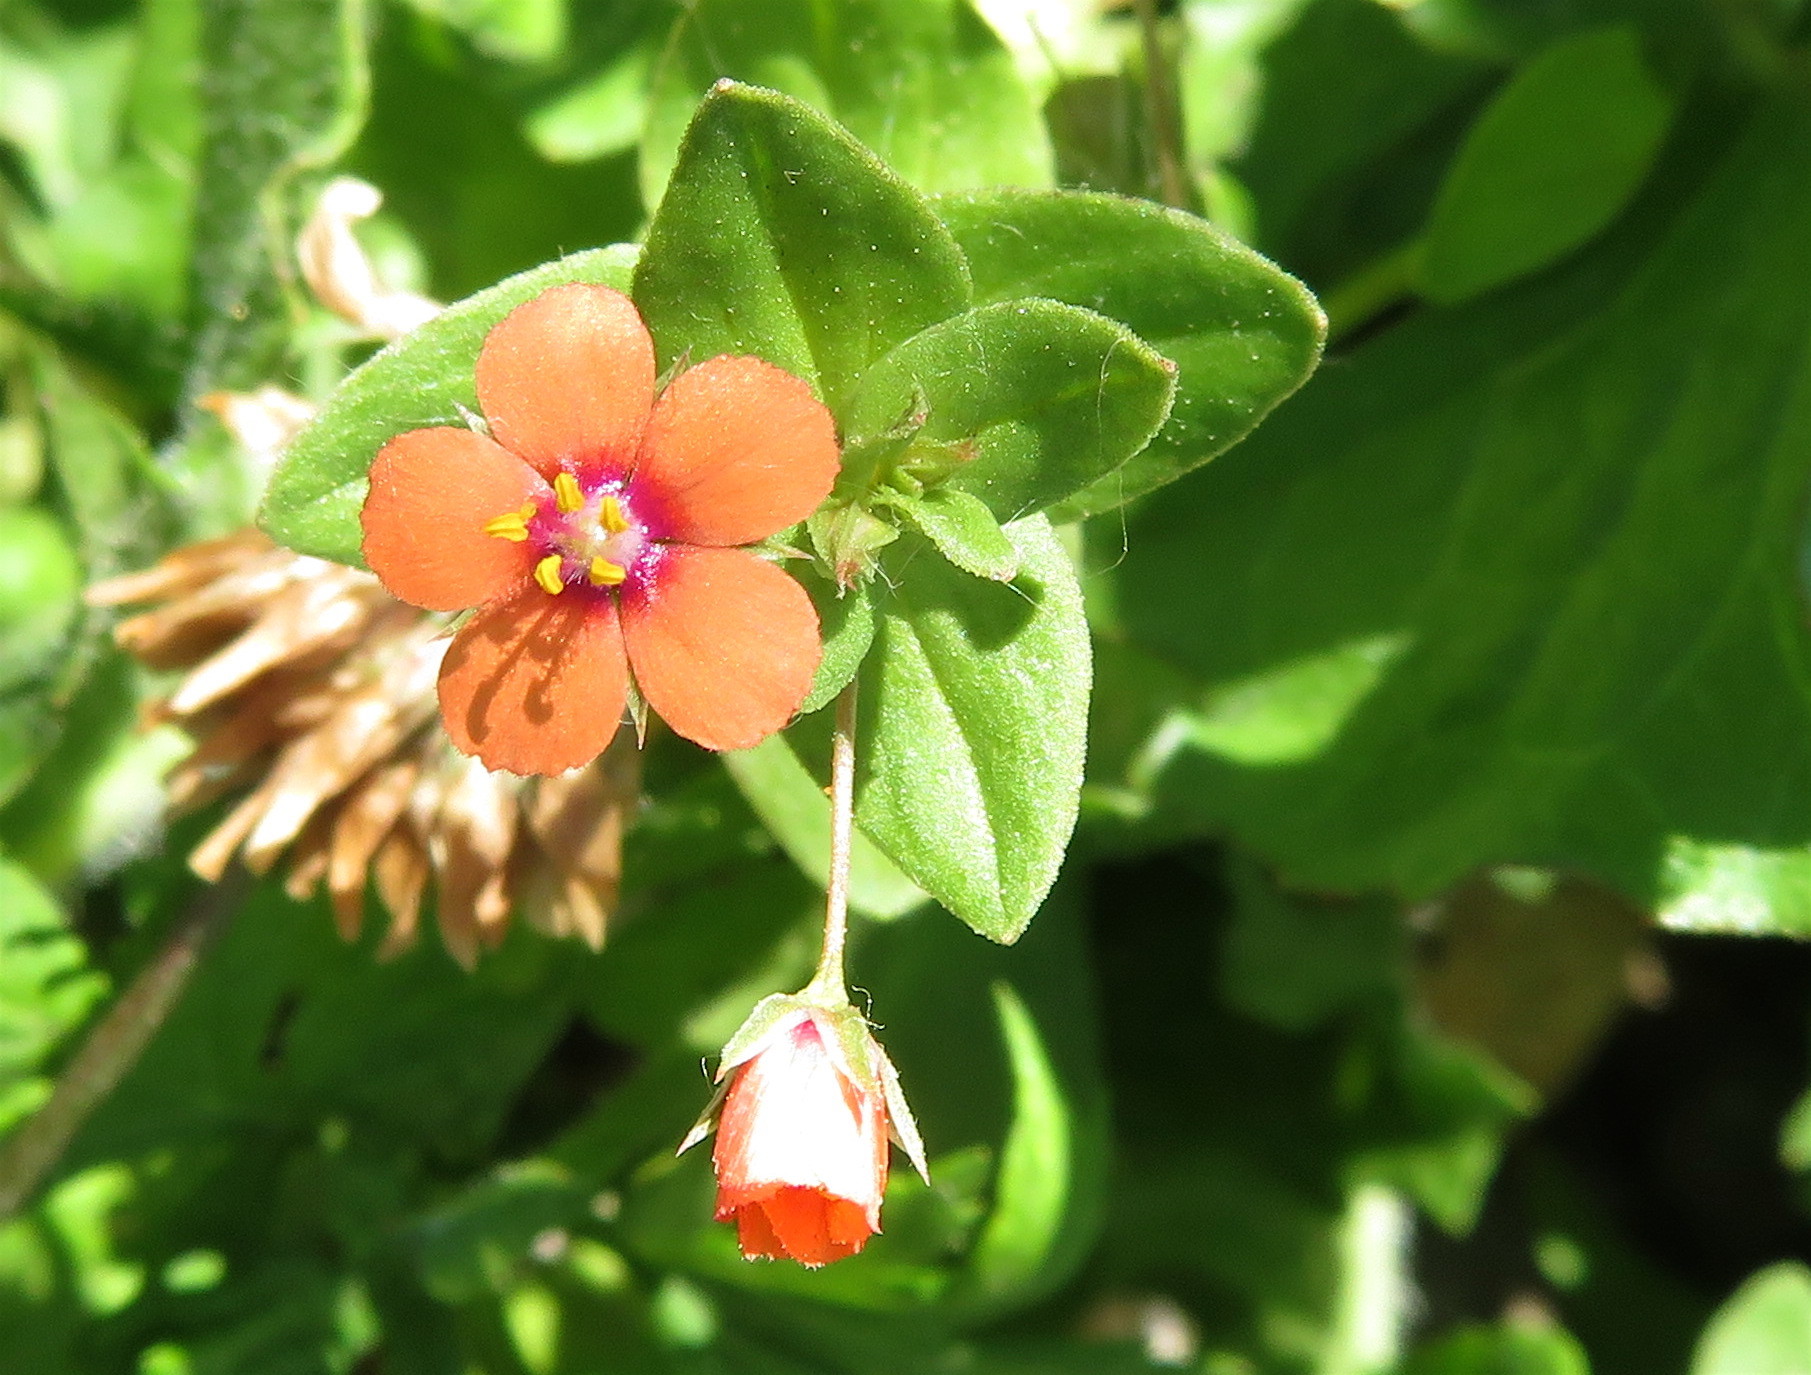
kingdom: Plantae
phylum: Tracheophyta
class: Magnoliopsida
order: Ericales
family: Primulaceae
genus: Lysimachia
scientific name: Lysimachia arvensis
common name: Scarlet pimpernel
